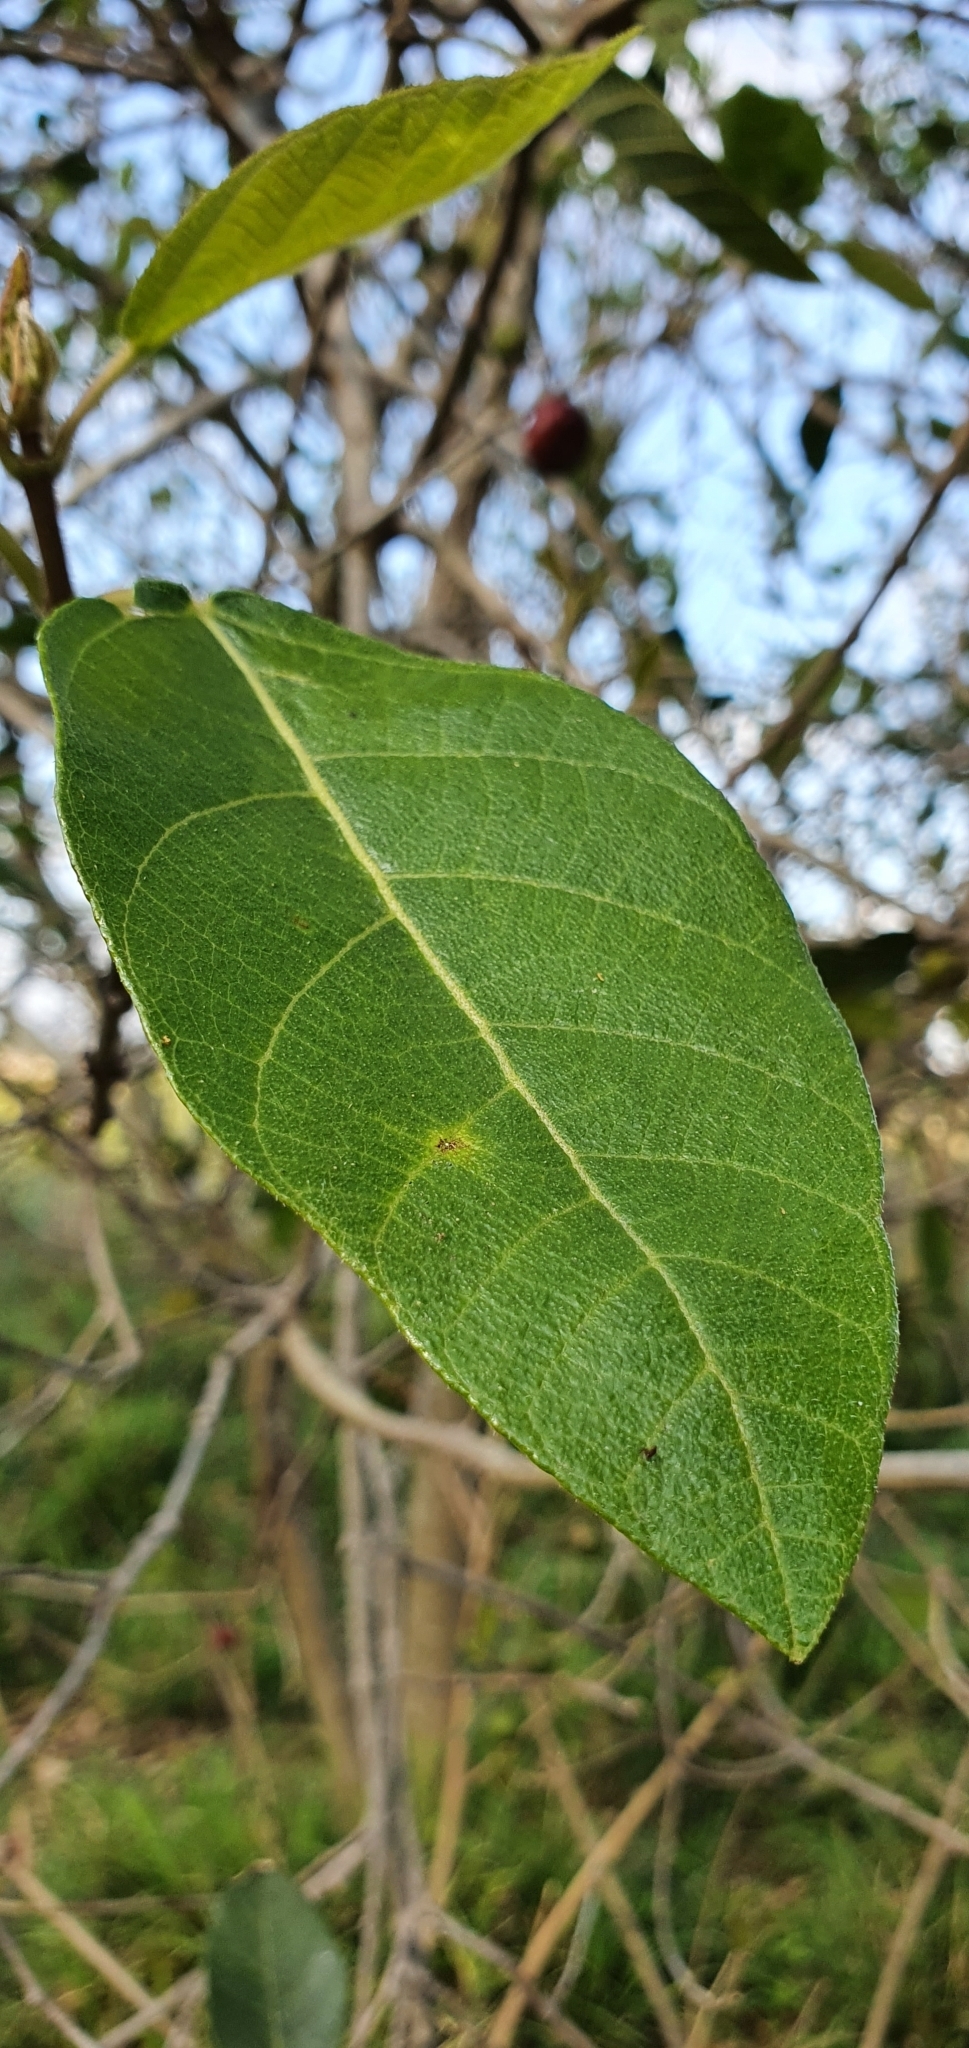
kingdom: Plantae
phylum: Tracheophyta
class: Magnoliopsida
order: Rosales
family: Moraceae
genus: Ficus
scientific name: Ficus opposita
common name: Figwood
